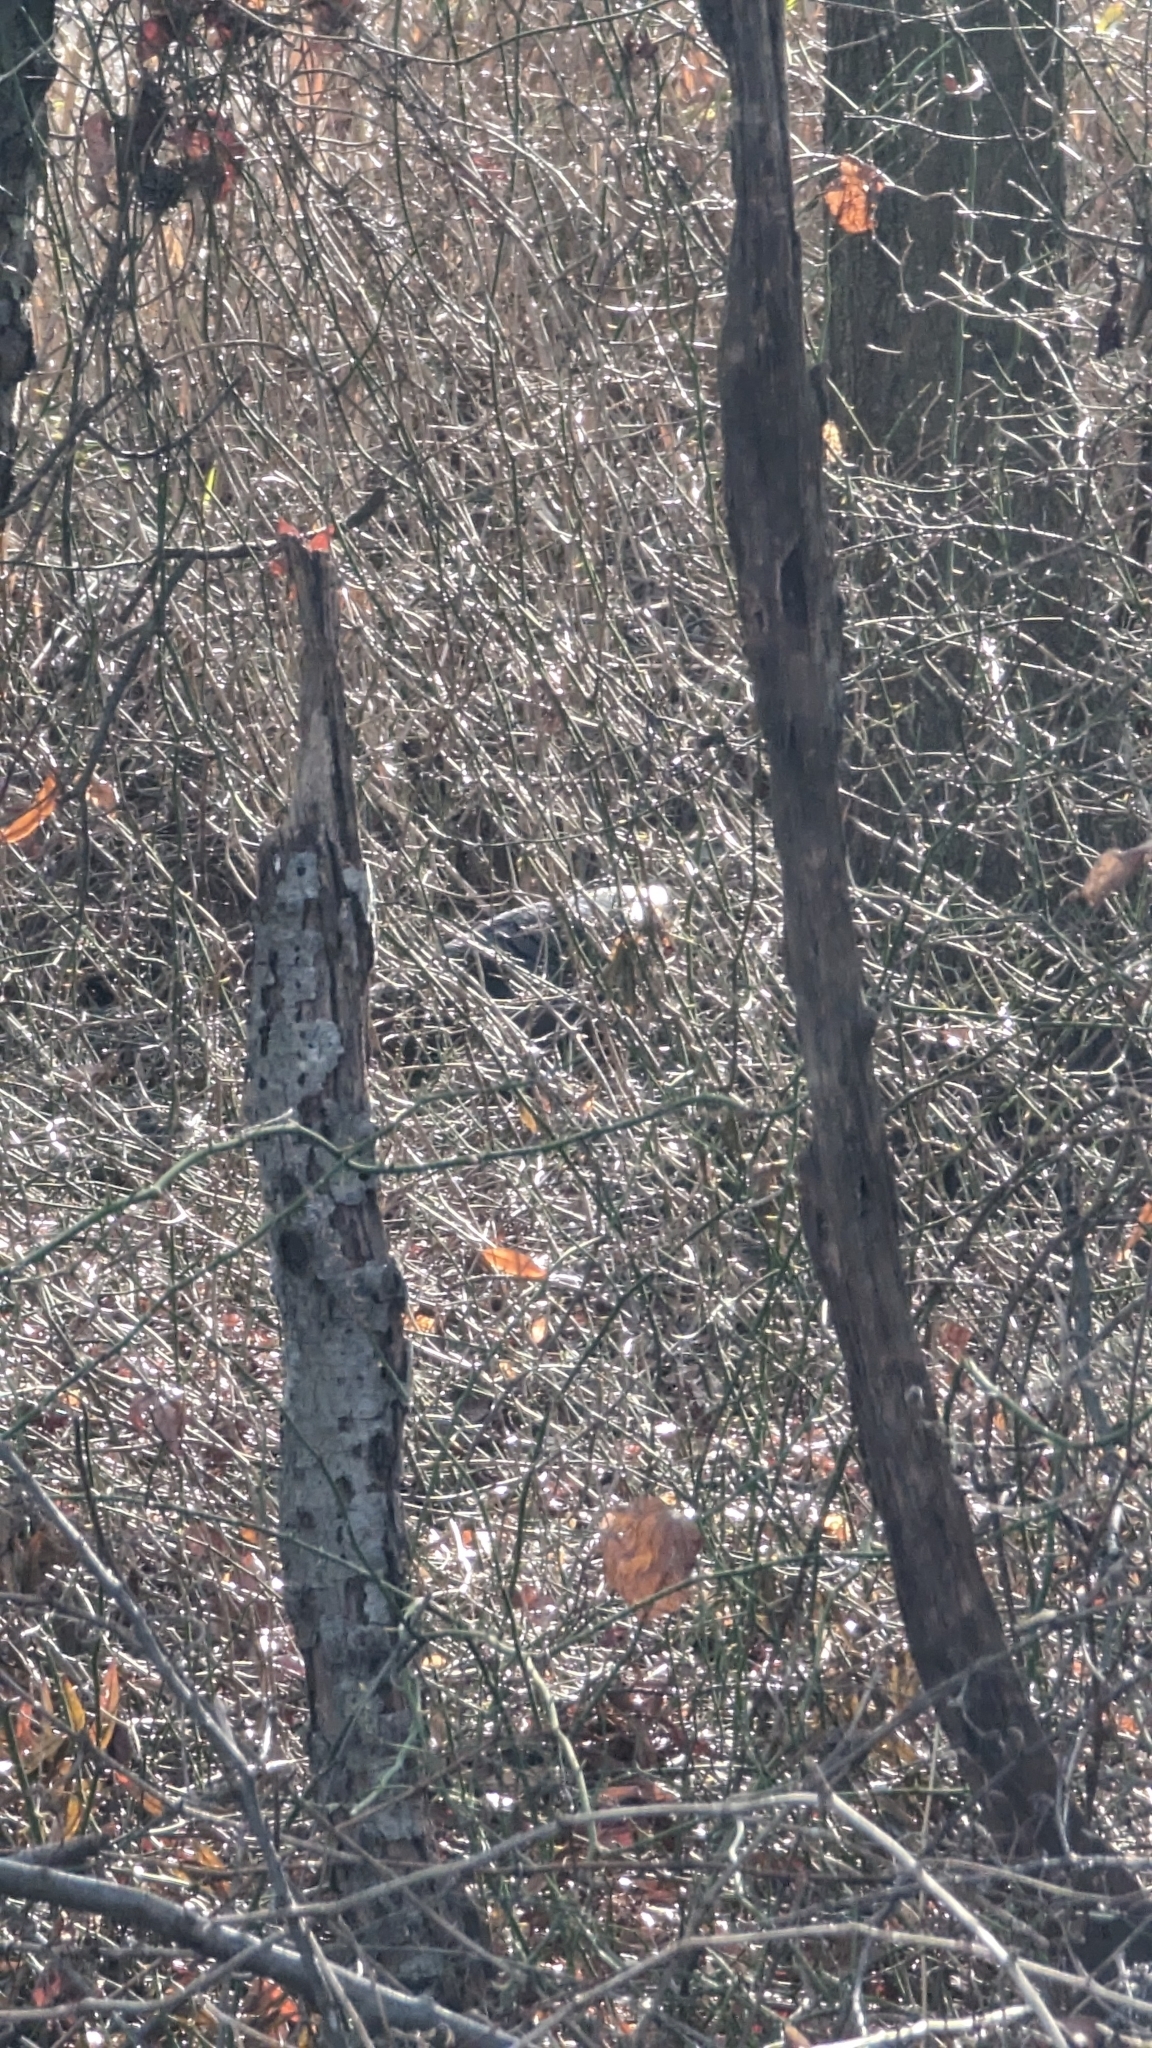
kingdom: Animalia
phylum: Chordata
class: Aves
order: Galliformes
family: Phasianidae
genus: Meleagris
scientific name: Meleagris gallopavo
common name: Wild turkey
